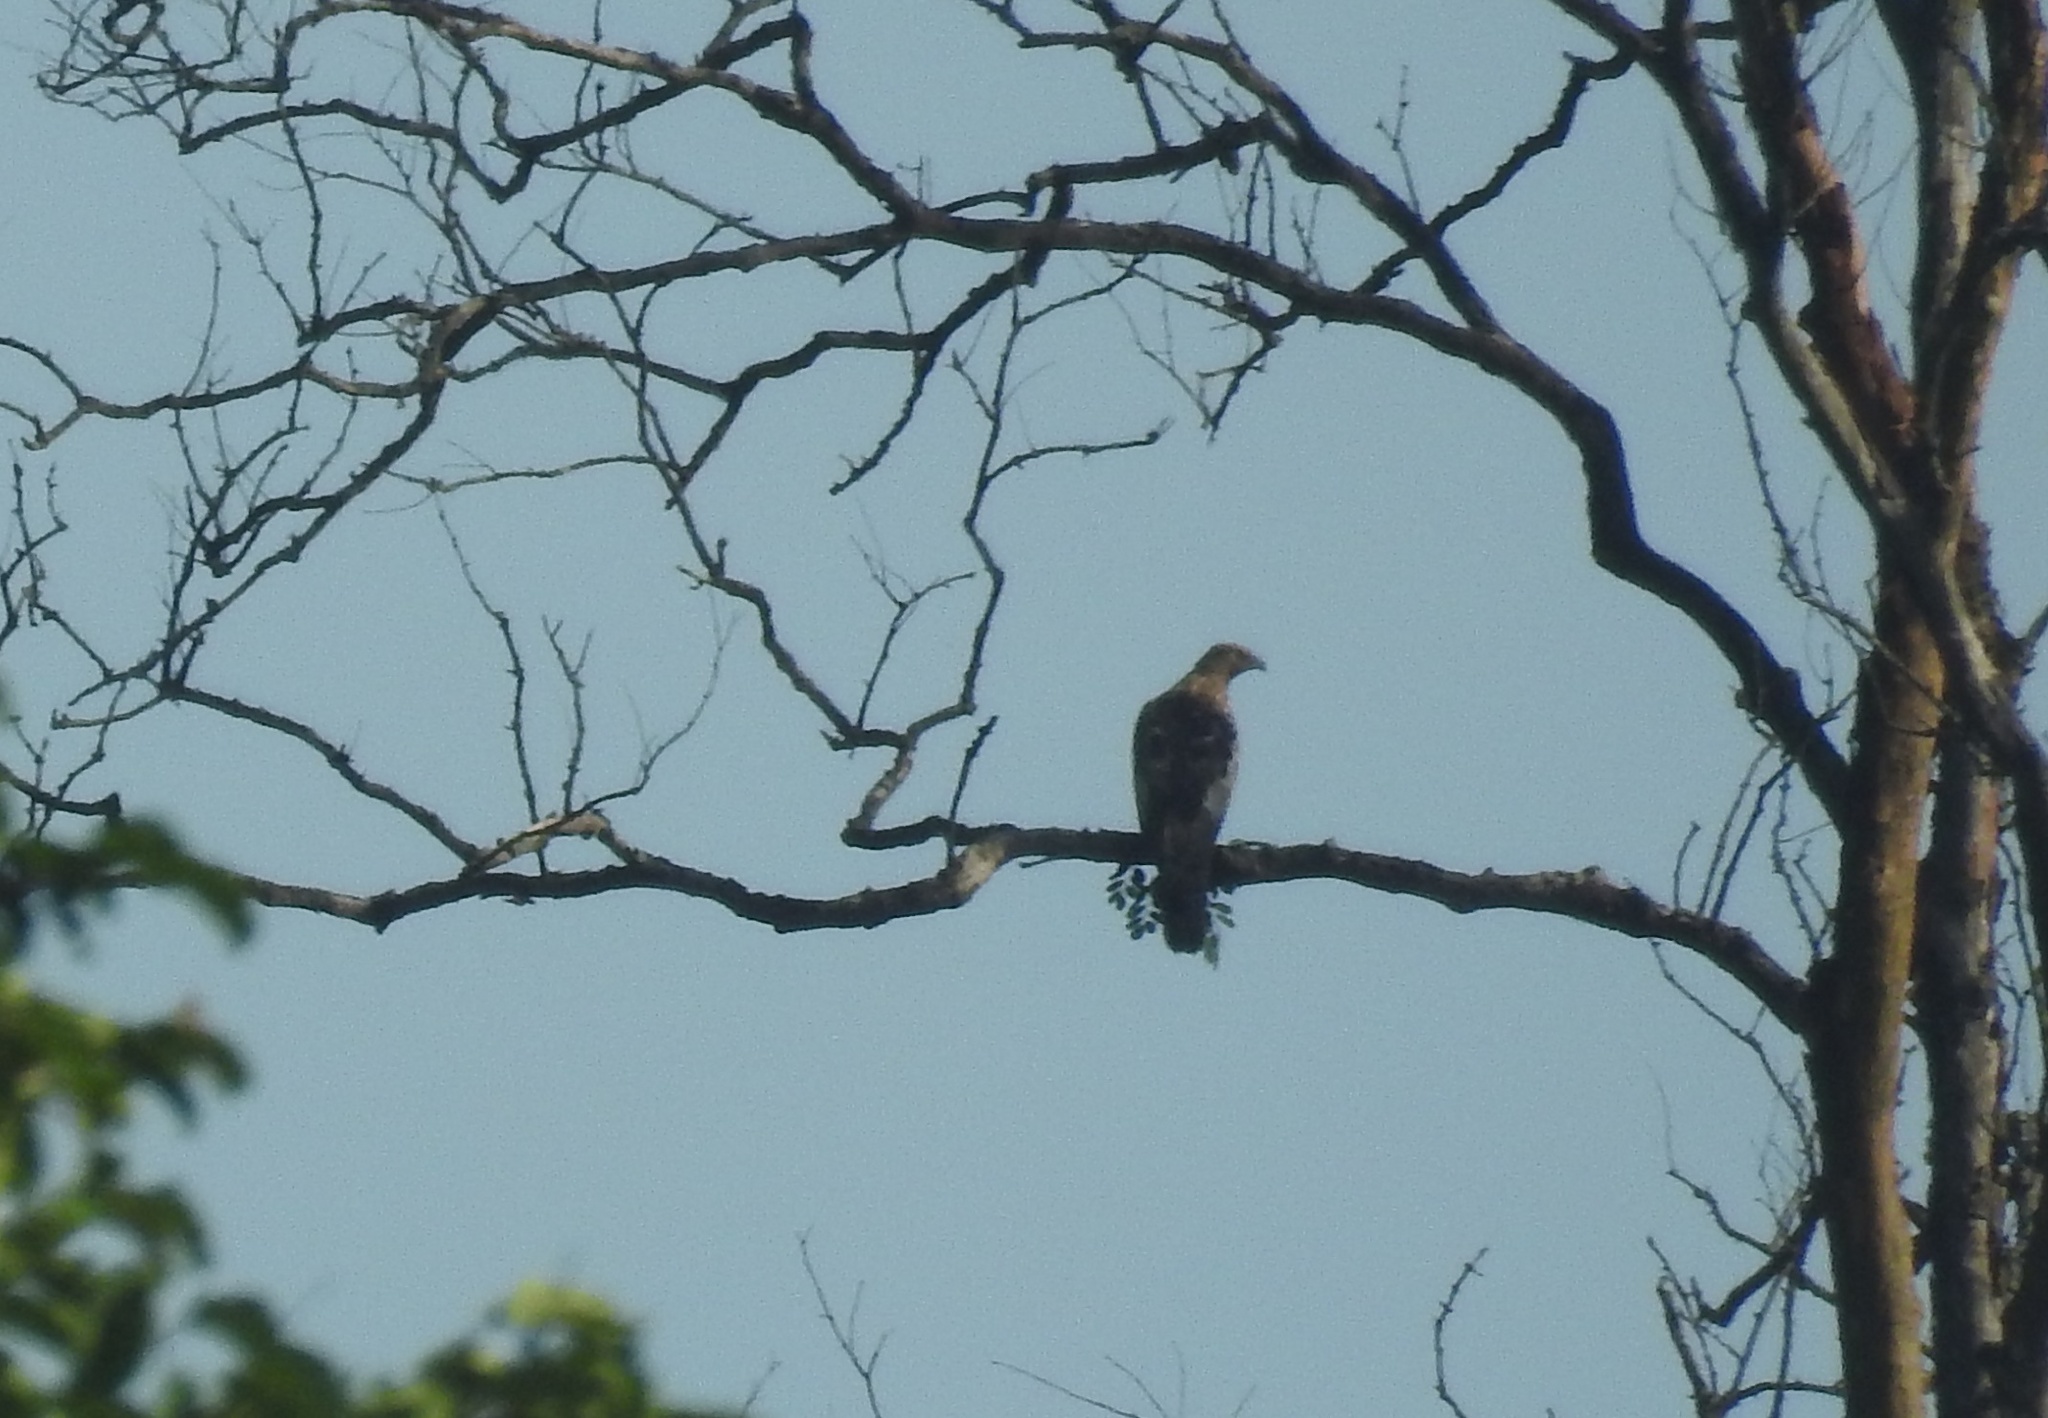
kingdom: Animalia
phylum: Chordata
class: Aves
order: Accipitriformes
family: Accipitridae
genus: Pernis
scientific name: Pernis ptilorhynchus
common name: Crested honey buzzard
